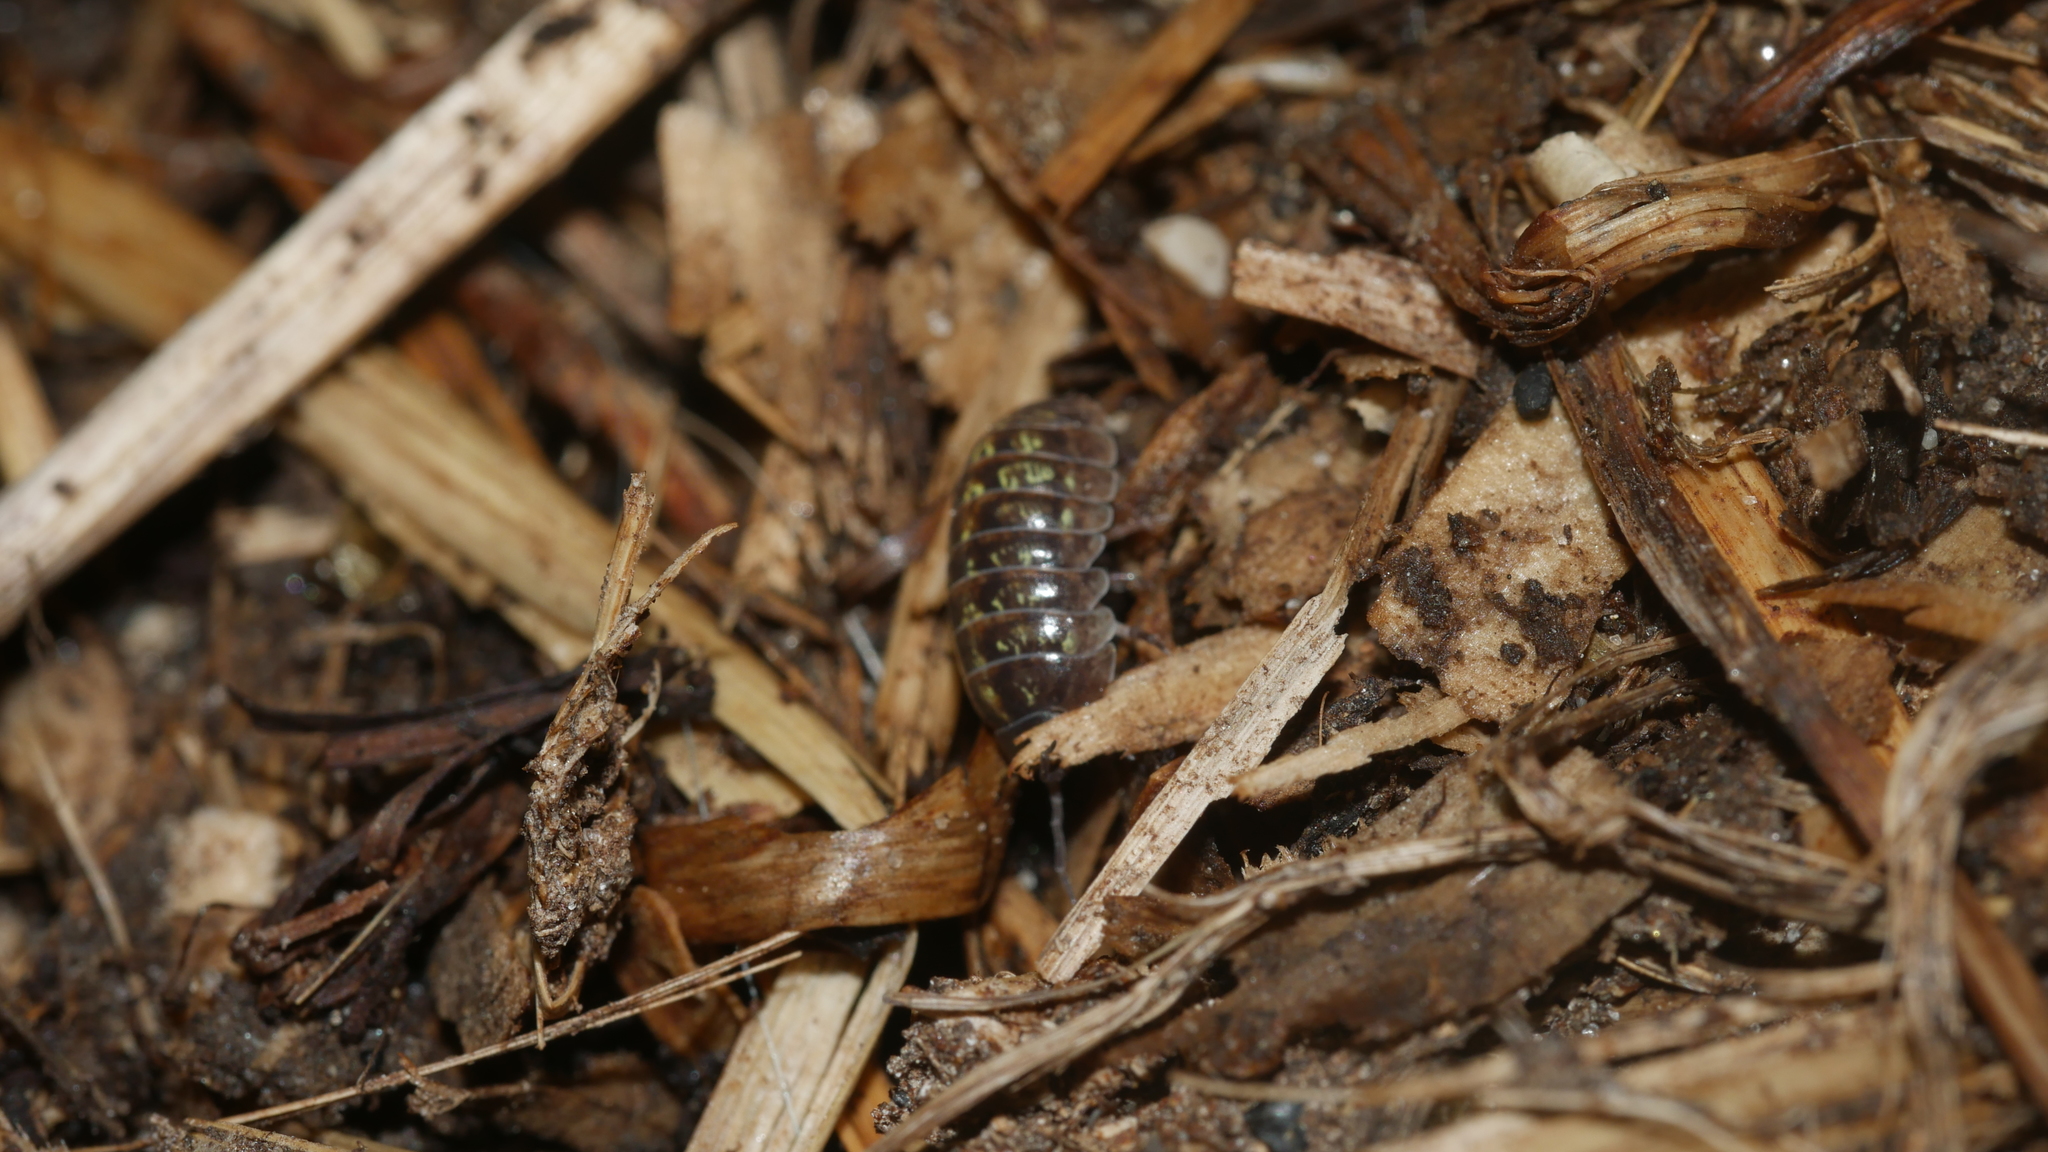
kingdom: Animalia
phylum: Arthropoda
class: Malacostraca
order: Isopoda
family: Armadillidiidae
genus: Armadillidium
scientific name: Armadillidium vulgare
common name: Common pill woodlouse
